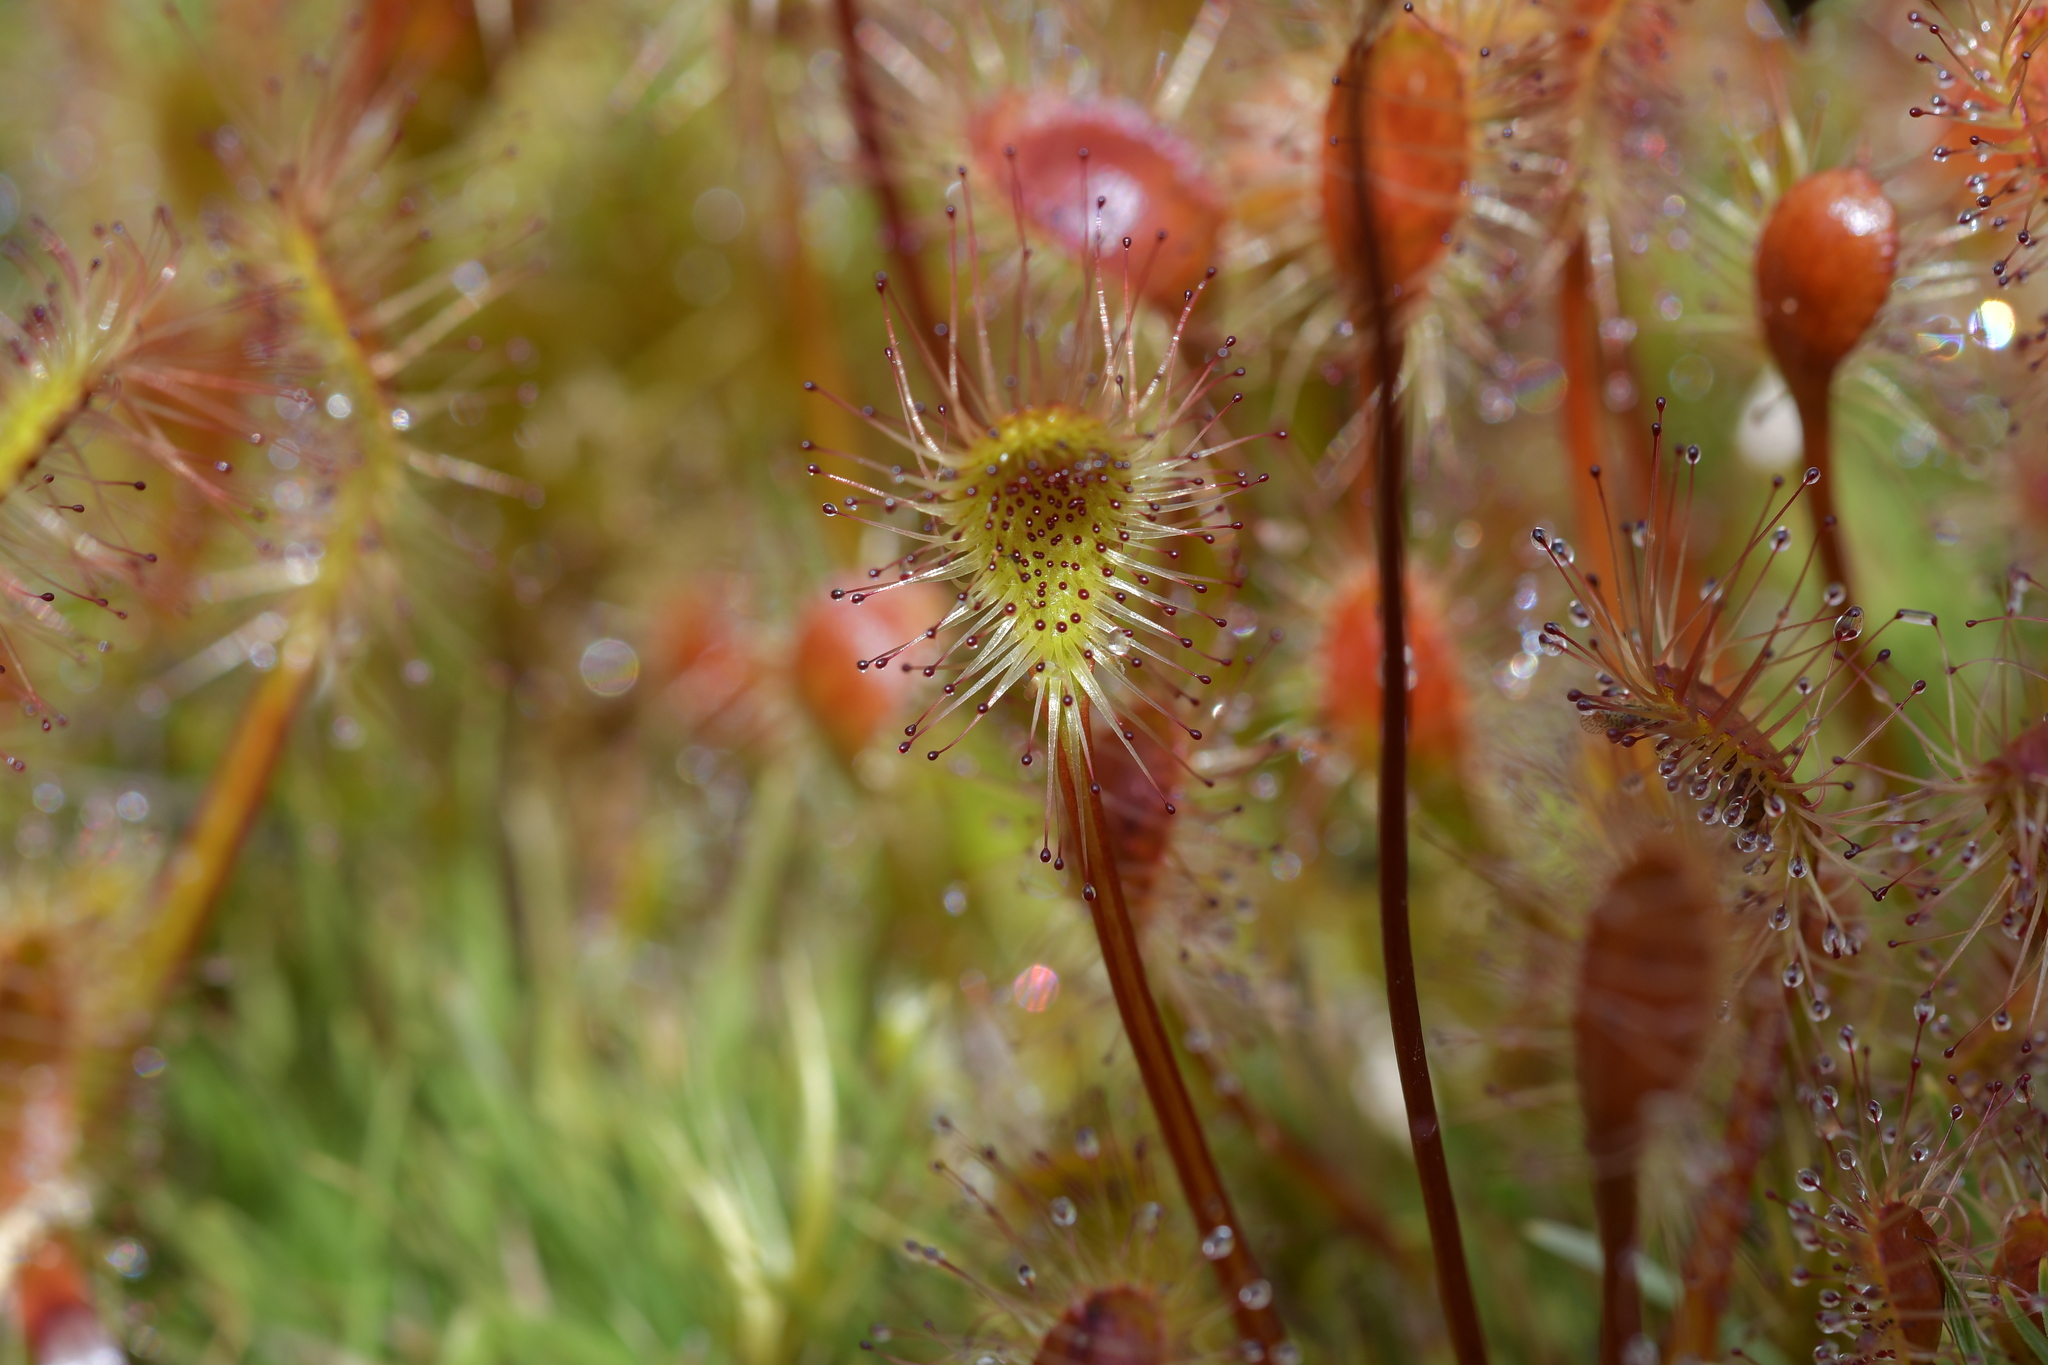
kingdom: Plantae
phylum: Tracheophyta
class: Magnoliopsida
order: Caryophyllales
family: Droseraceae
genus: Drosera
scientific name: Drosera stenopetala
